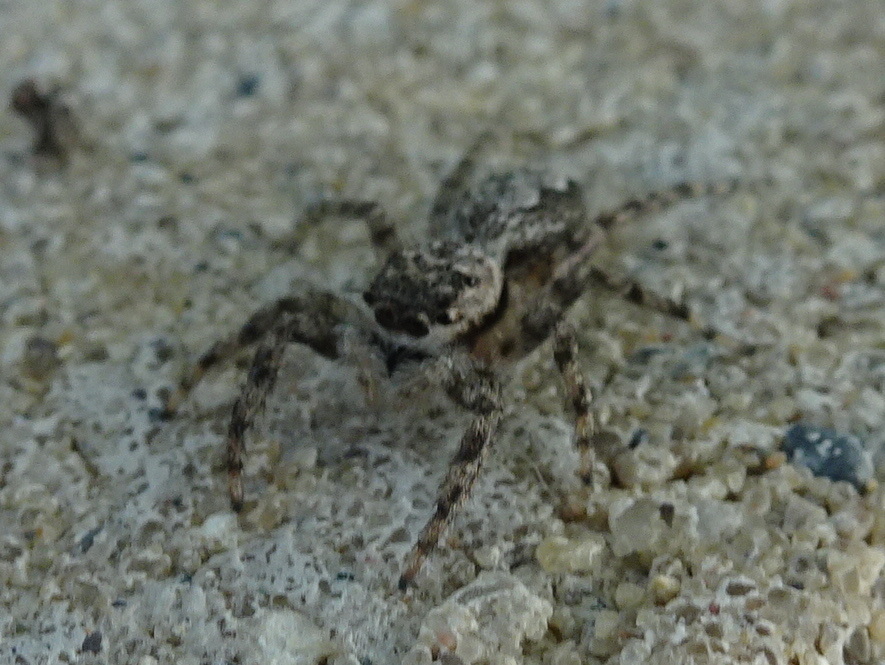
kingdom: Animalia
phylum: Arthropoda
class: Arachnida
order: Araneae
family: Salticidae
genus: Platycryptus
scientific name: Platycryptus undatus
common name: Tan jumping spider
